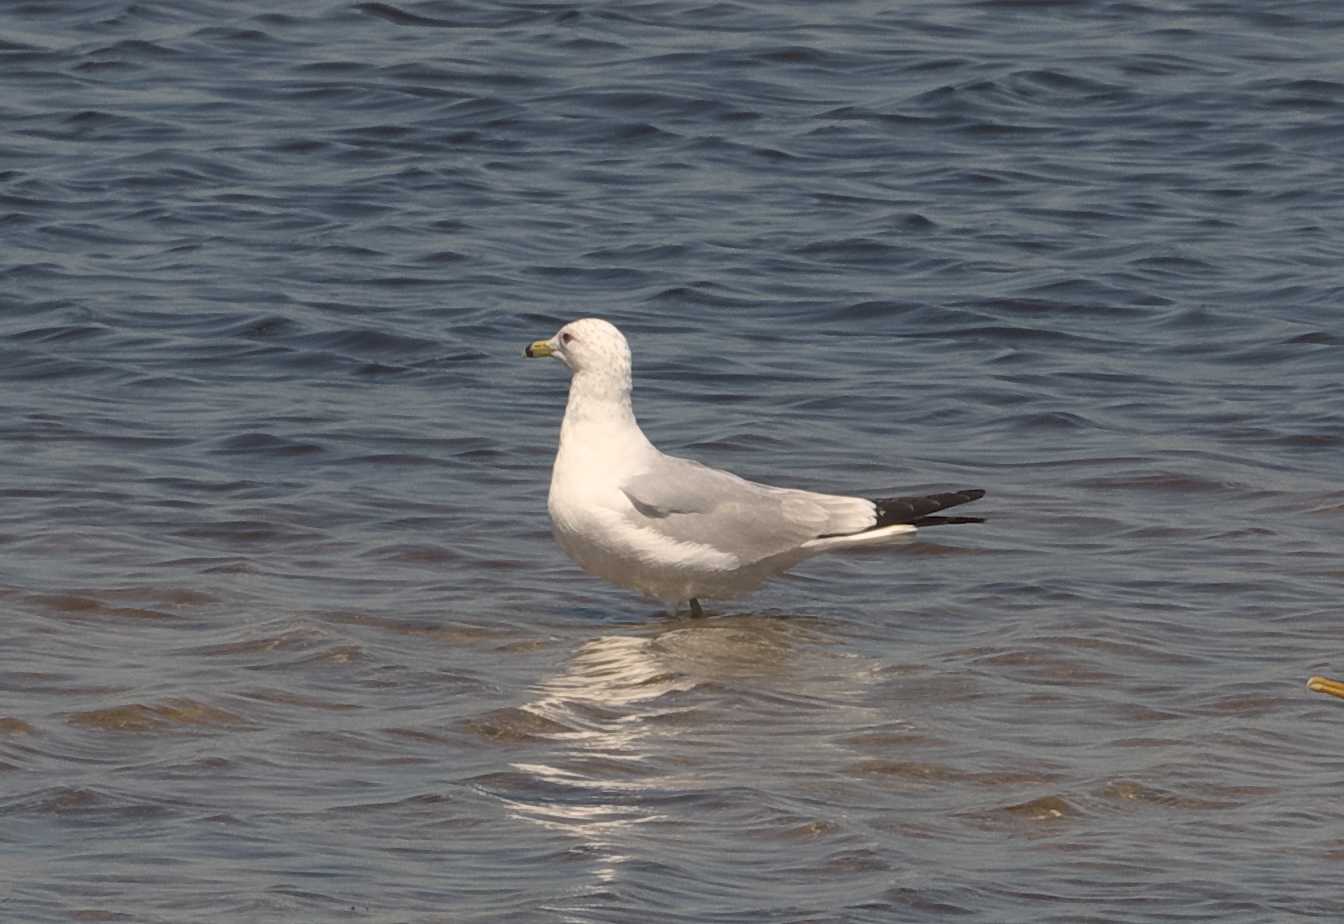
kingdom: Animalia
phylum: Chordata
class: Aves
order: Charadriiformes
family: Laridae
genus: Larus
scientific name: Larus delawarensis
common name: Ring-billed gull
